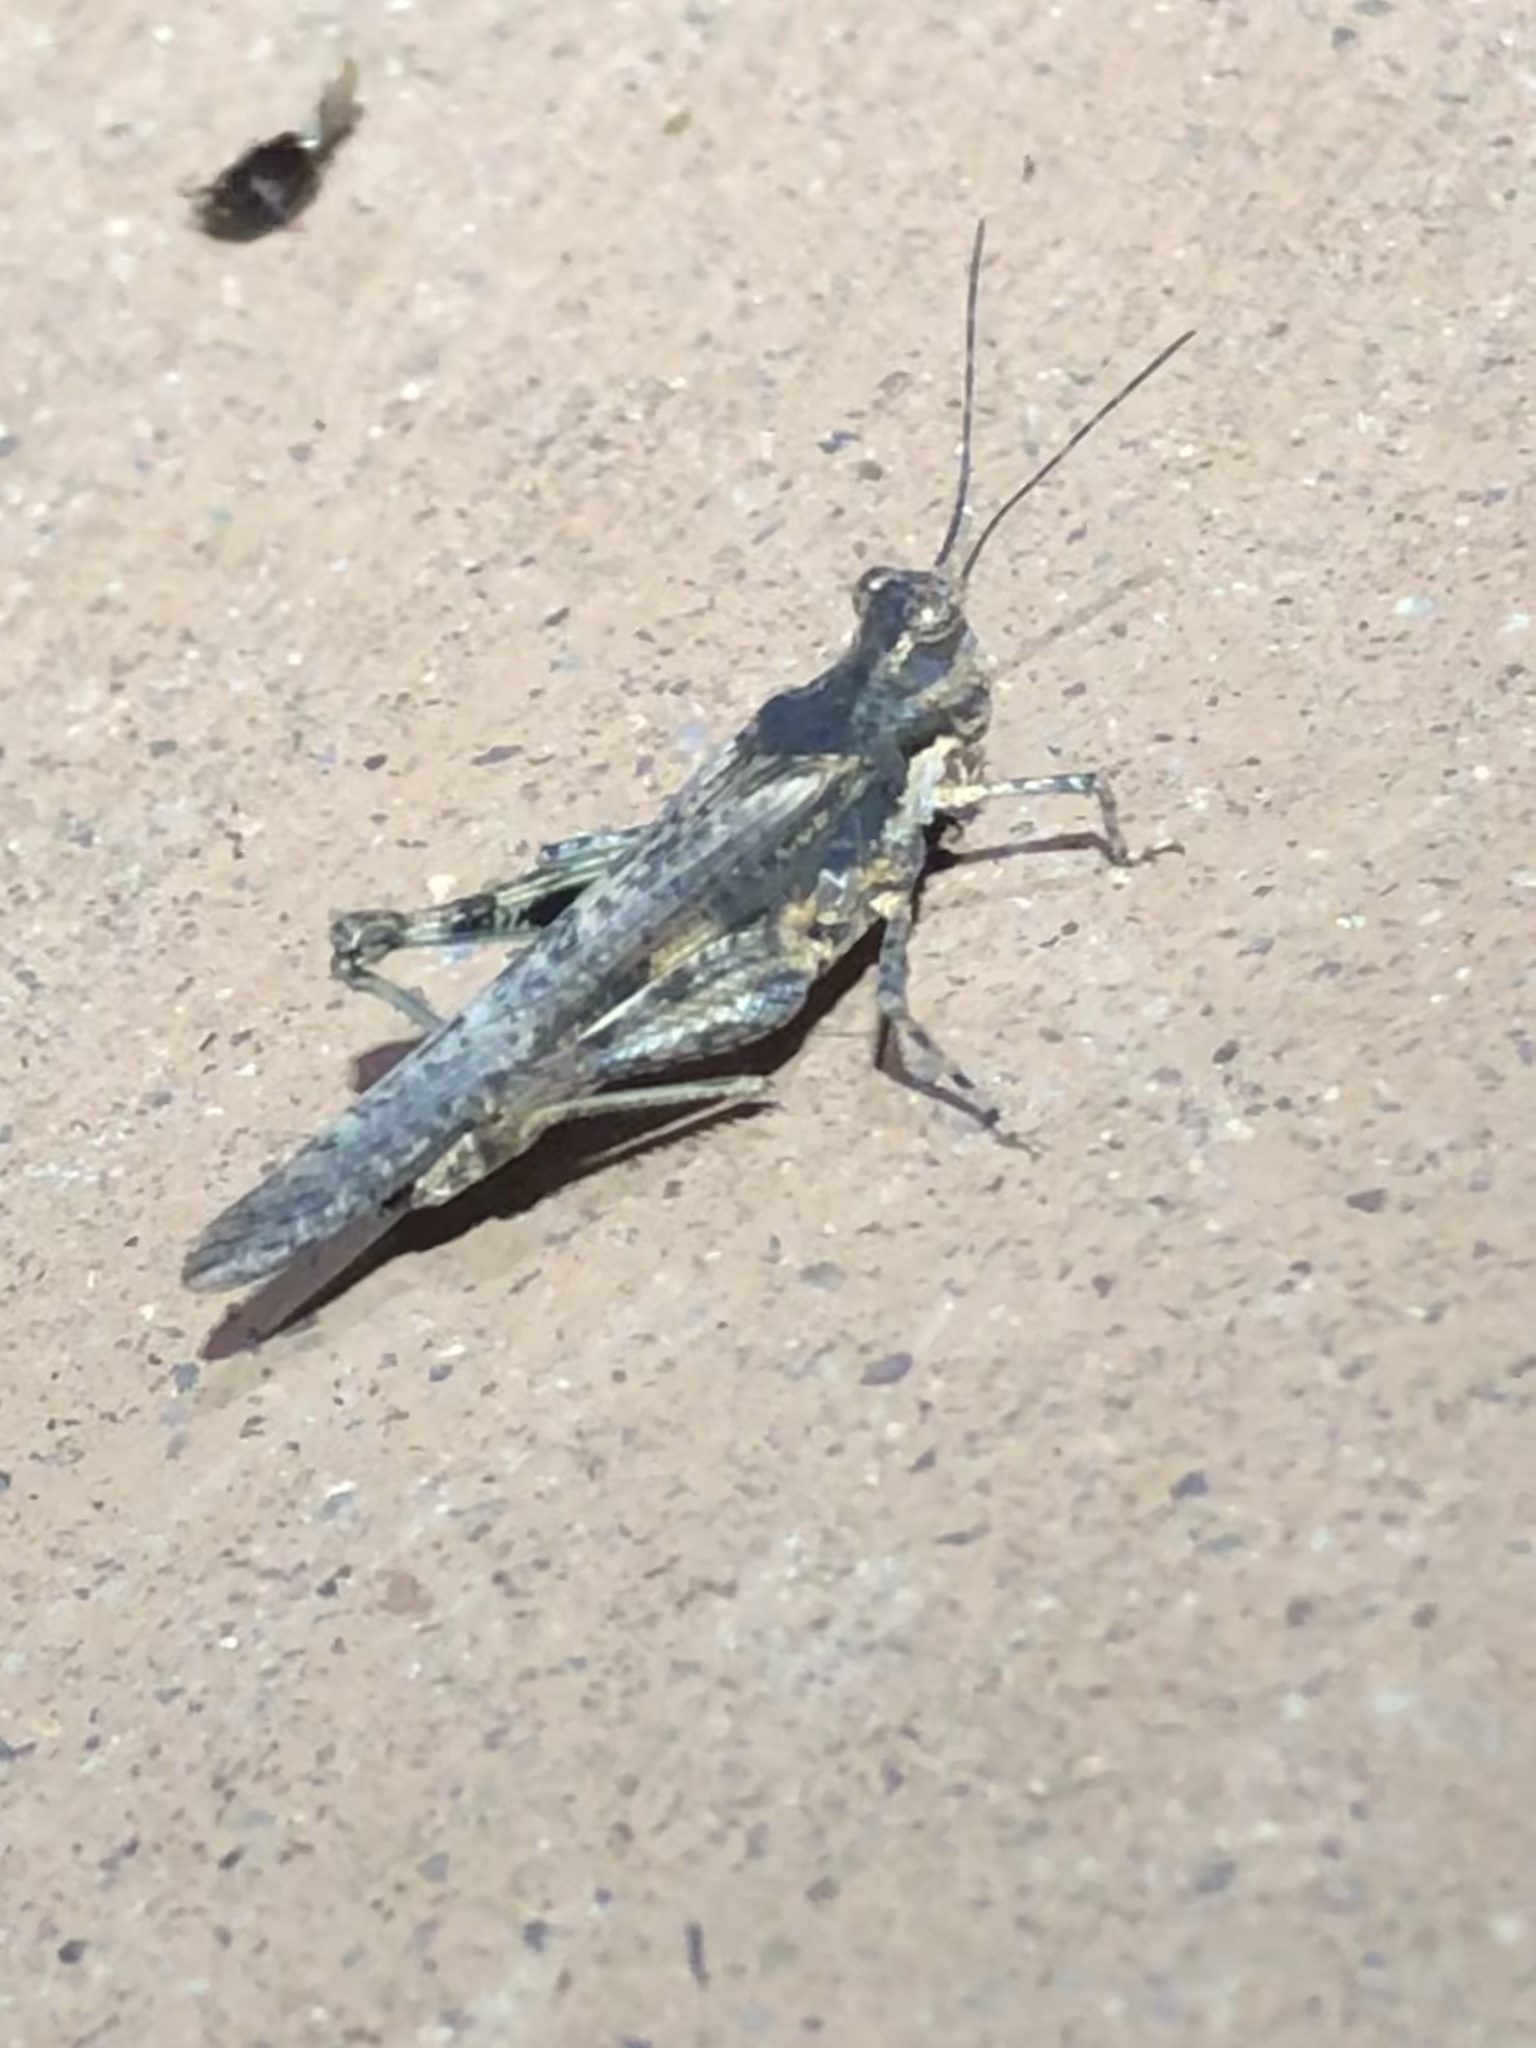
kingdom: Animalia
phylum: Arthropoda
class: Insecta
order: Orthoptera
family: Acrididae
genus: Trepidulus
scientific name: Trepidulus rosaceus
